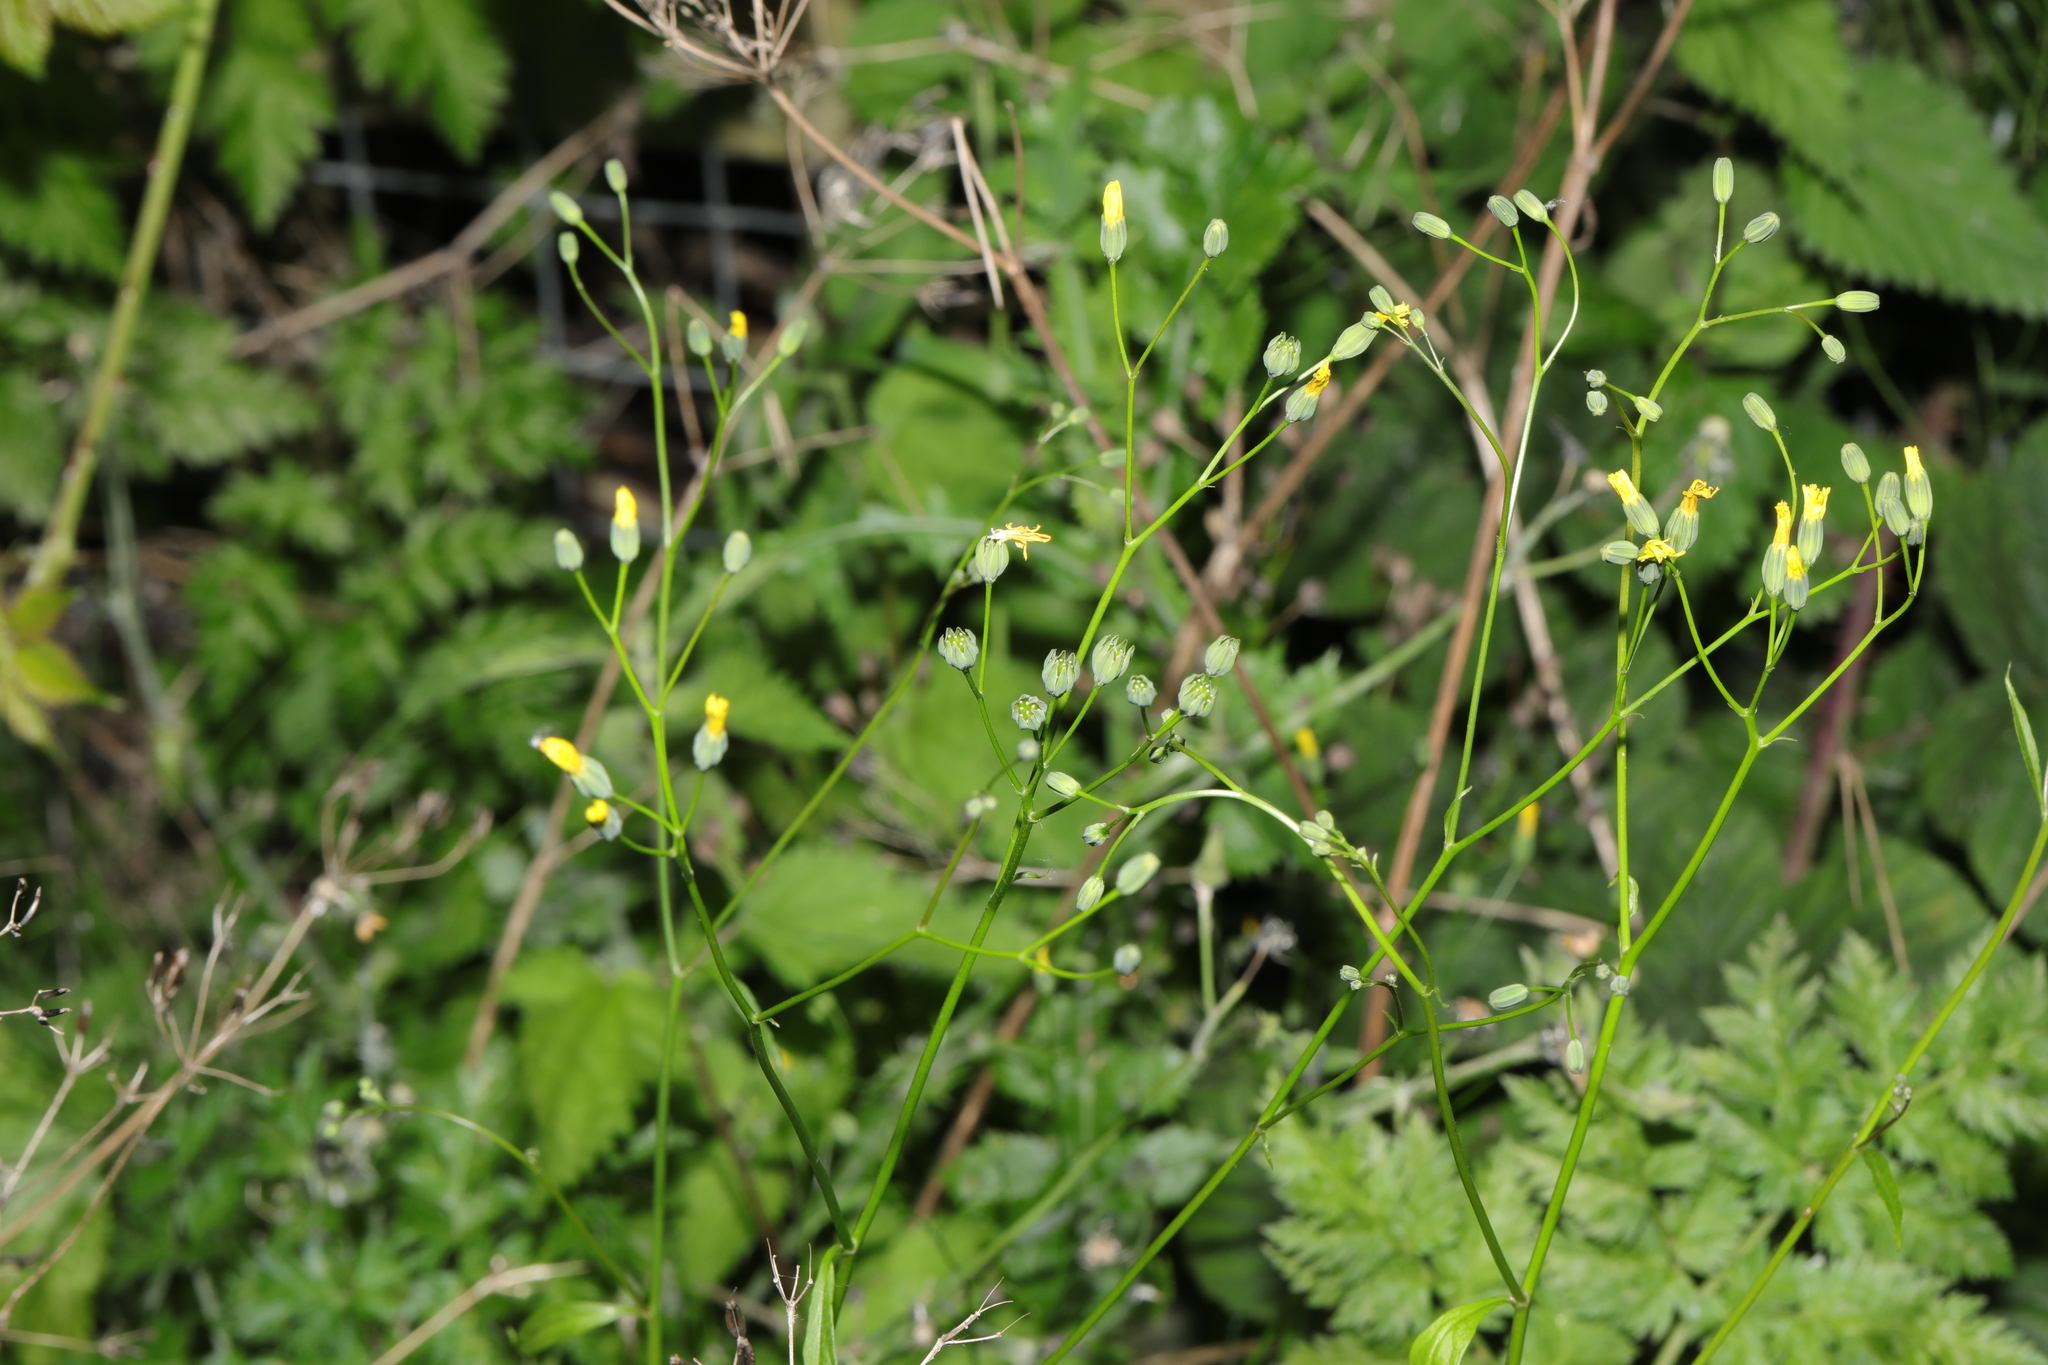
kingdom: Plantae
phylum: Tracheophyta
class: Magnoliopsida
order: Asterales
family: Asteraceae
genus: Lapsana
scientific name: Lapsana communis
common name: Nipplewort
